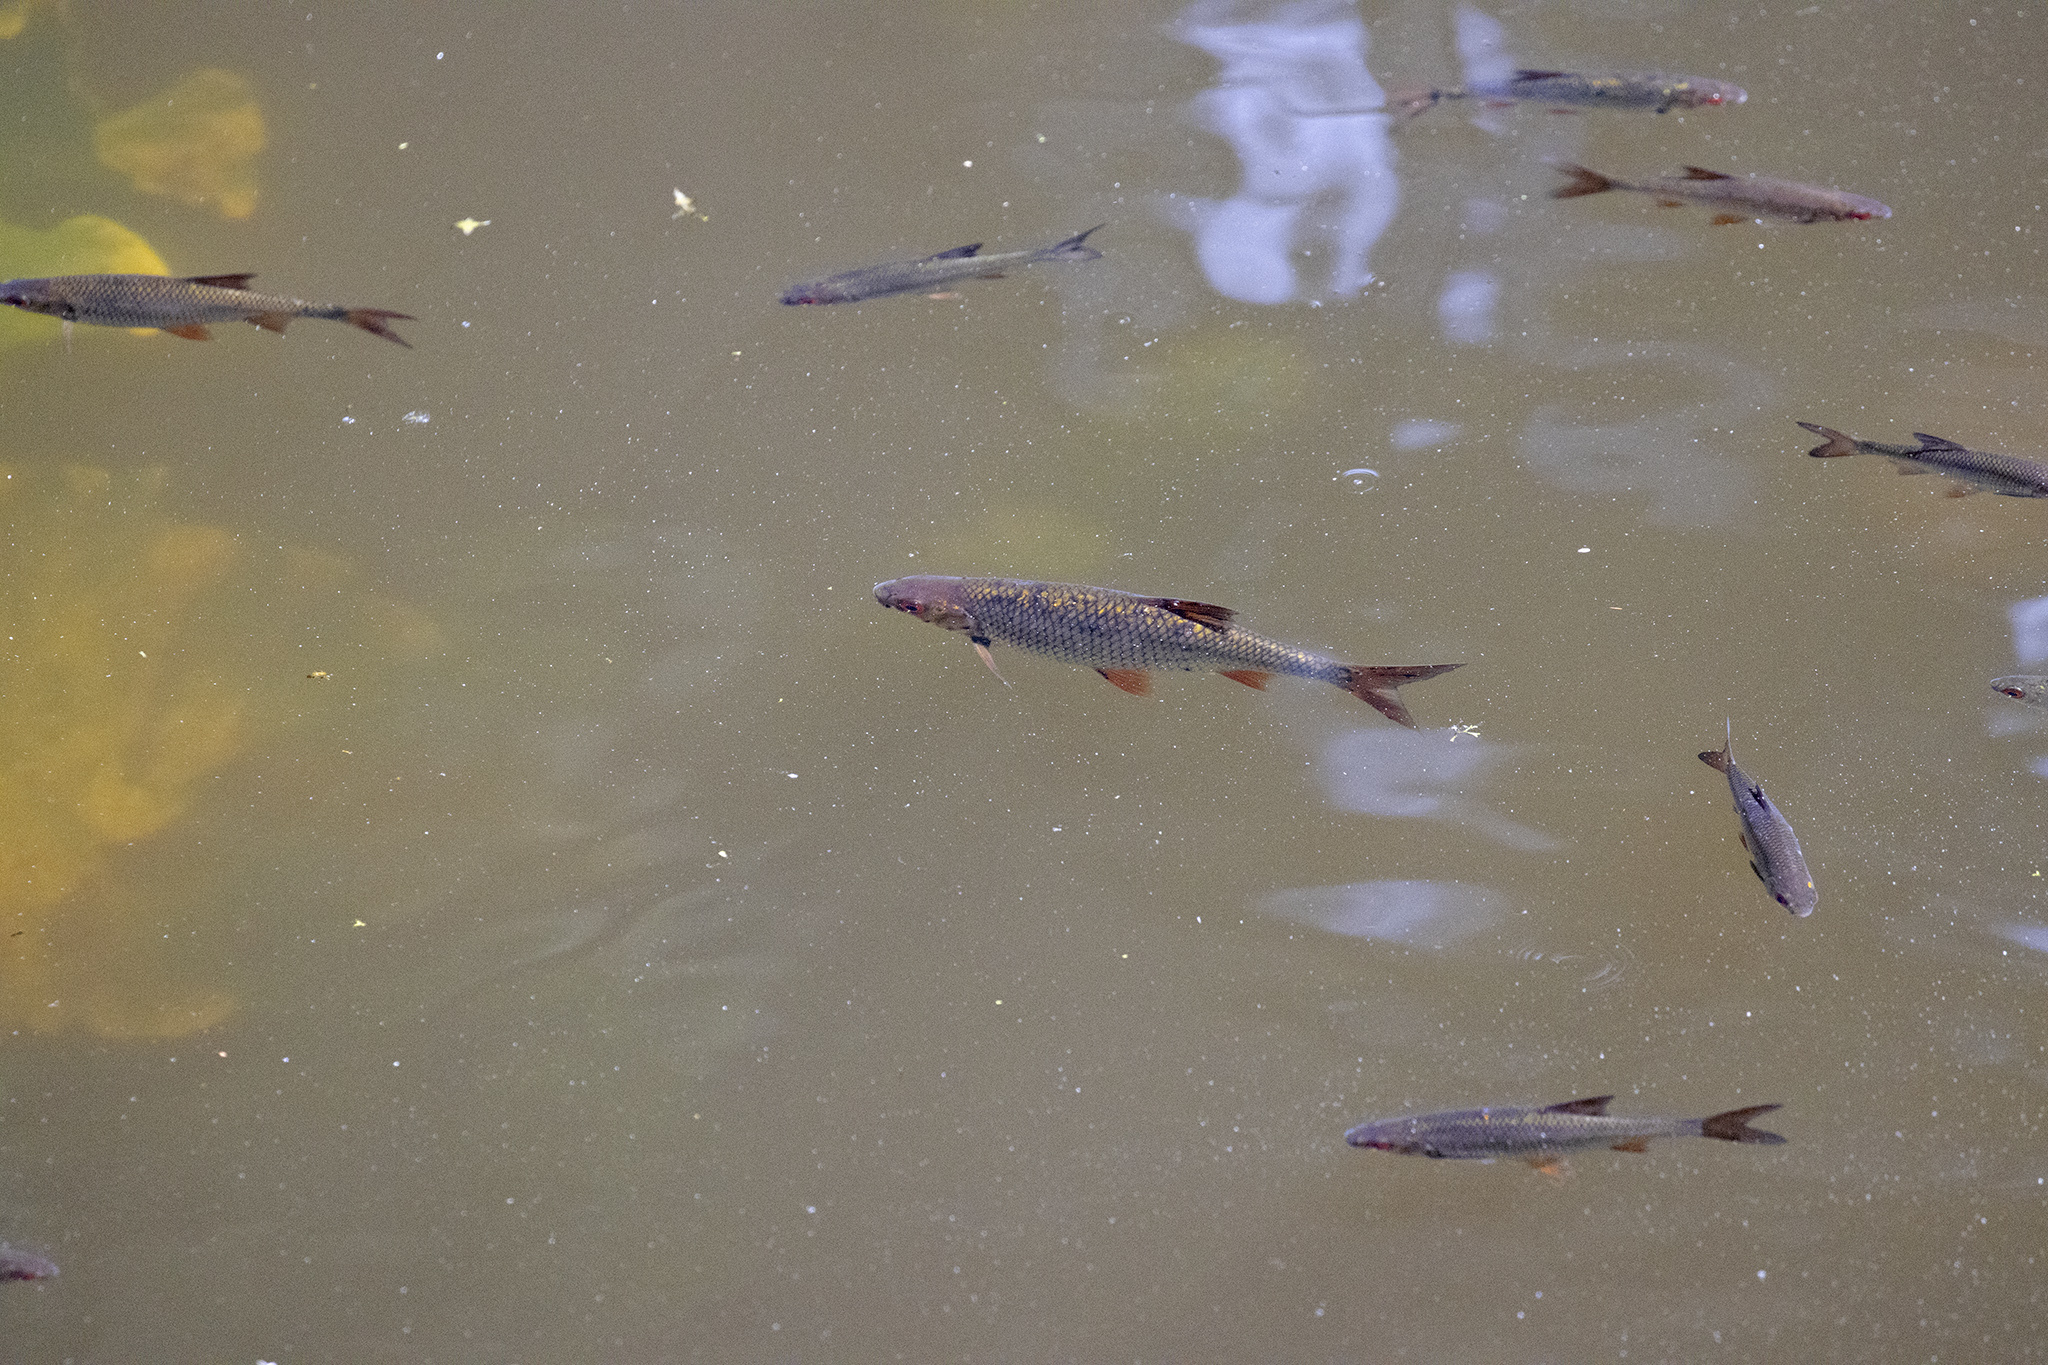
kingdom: Animalia
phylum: Chordata
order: Cypriniformes
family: Cyprinidae
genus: Scardinius
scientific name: Scardinius erythrophthalmus
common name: Rudd
